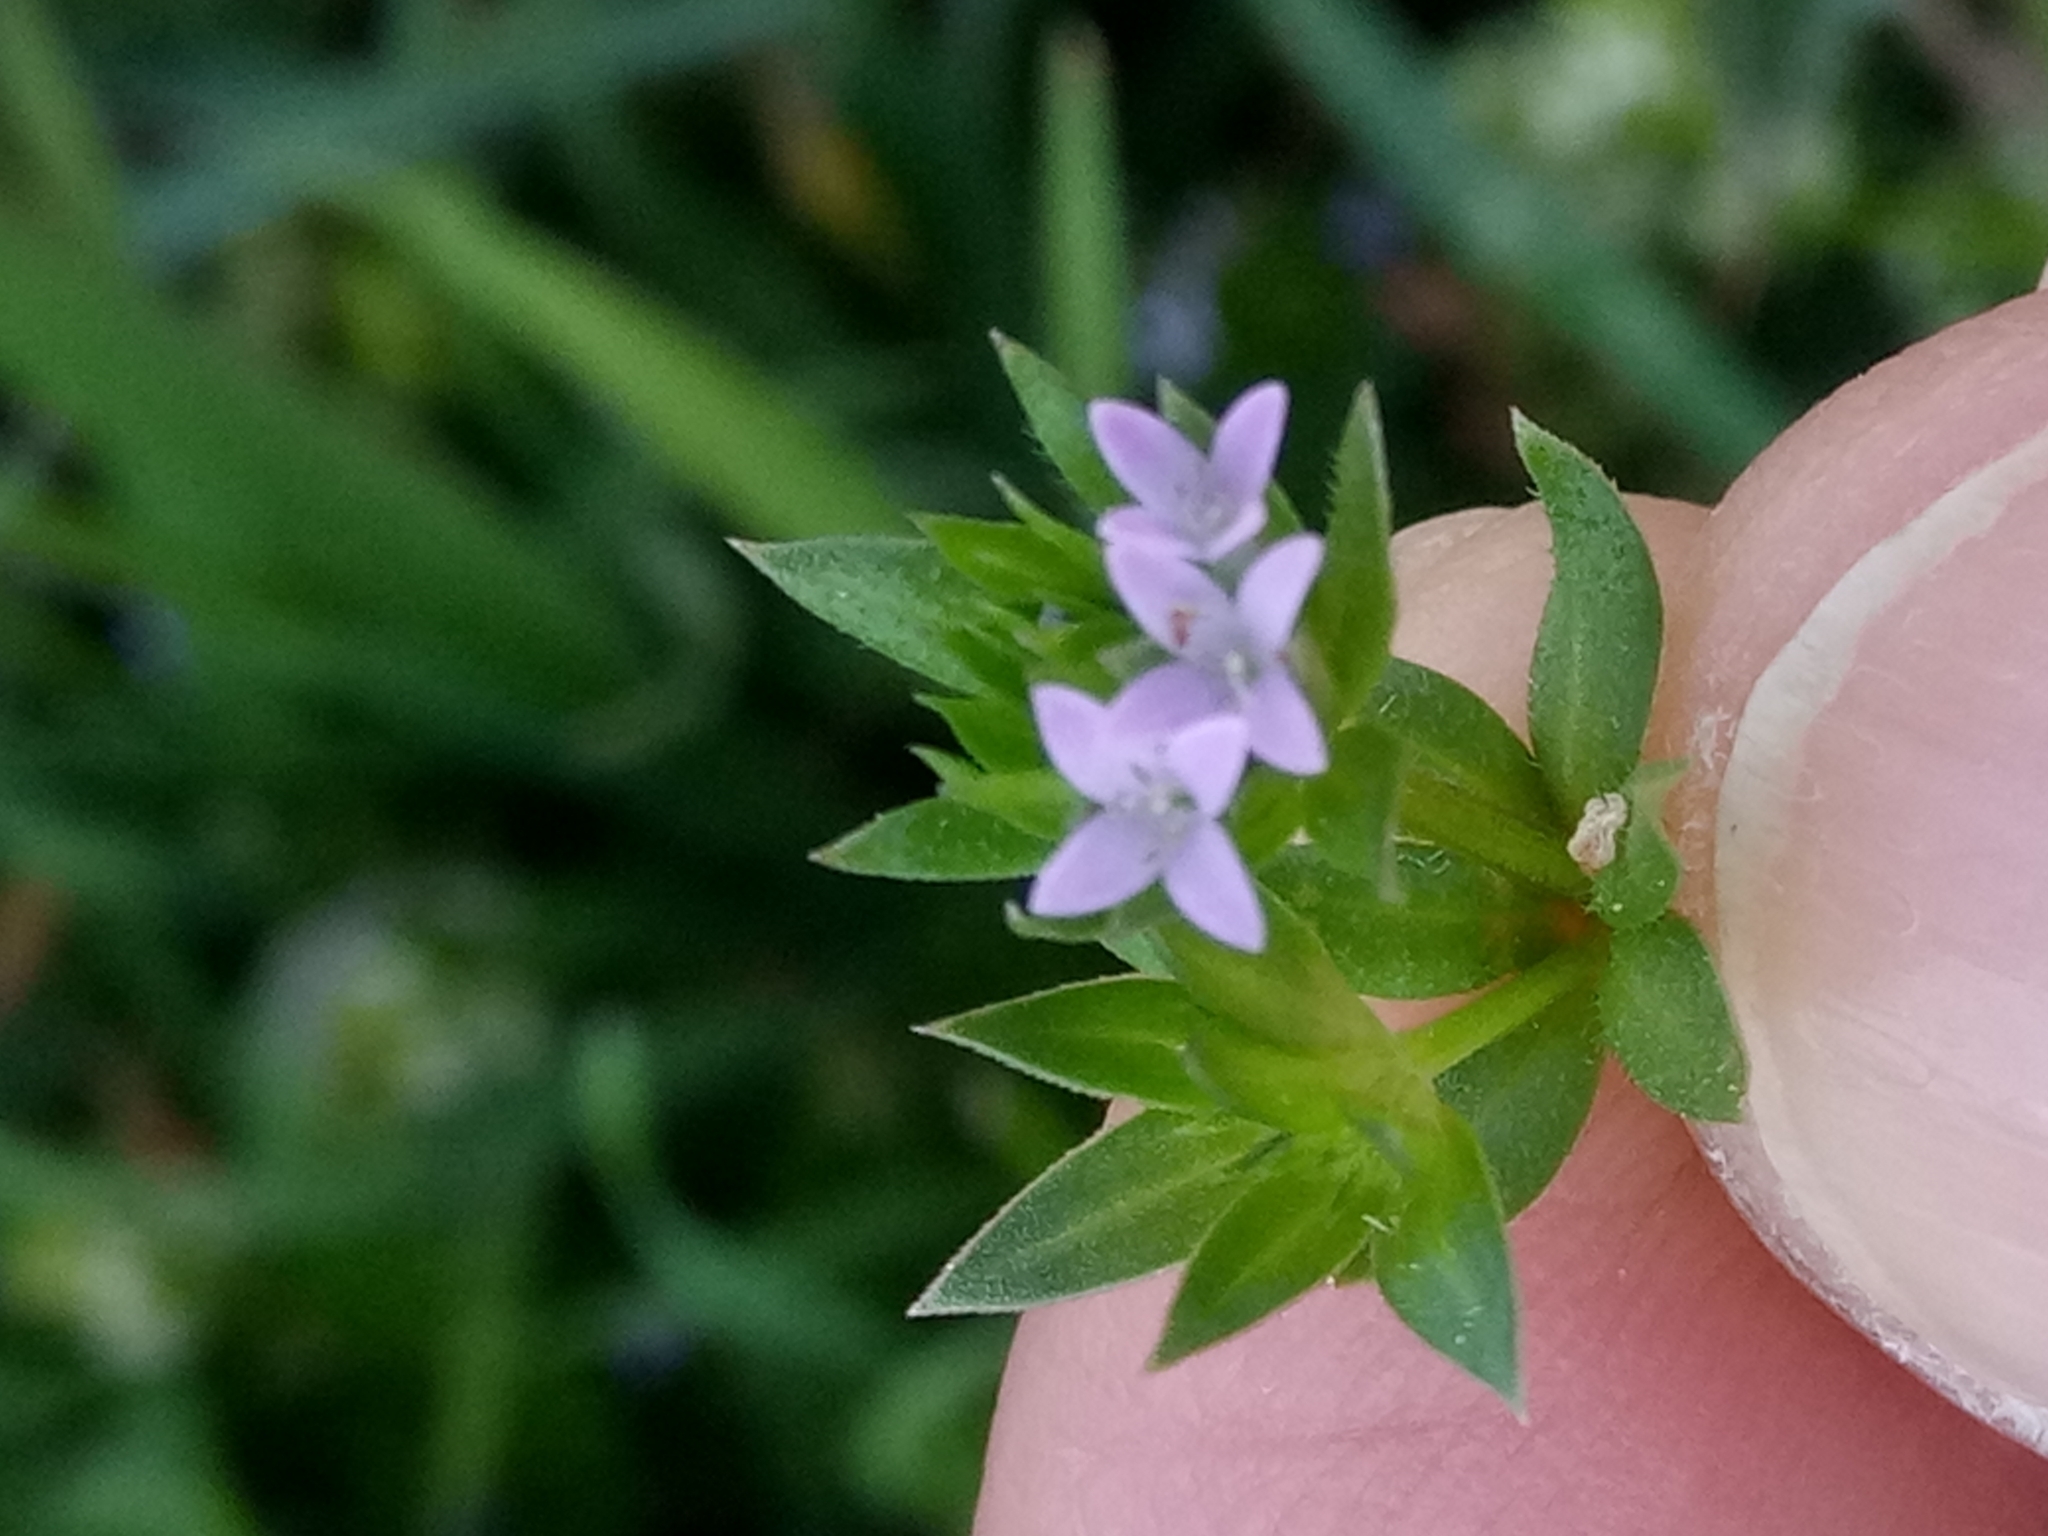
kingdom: Plantae
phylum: Tracheophyta
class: Magnoliopsida
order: Gentianales
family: Rubiaceae
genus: Sherardia
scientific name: Sherardia arvensis
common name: Field madder
